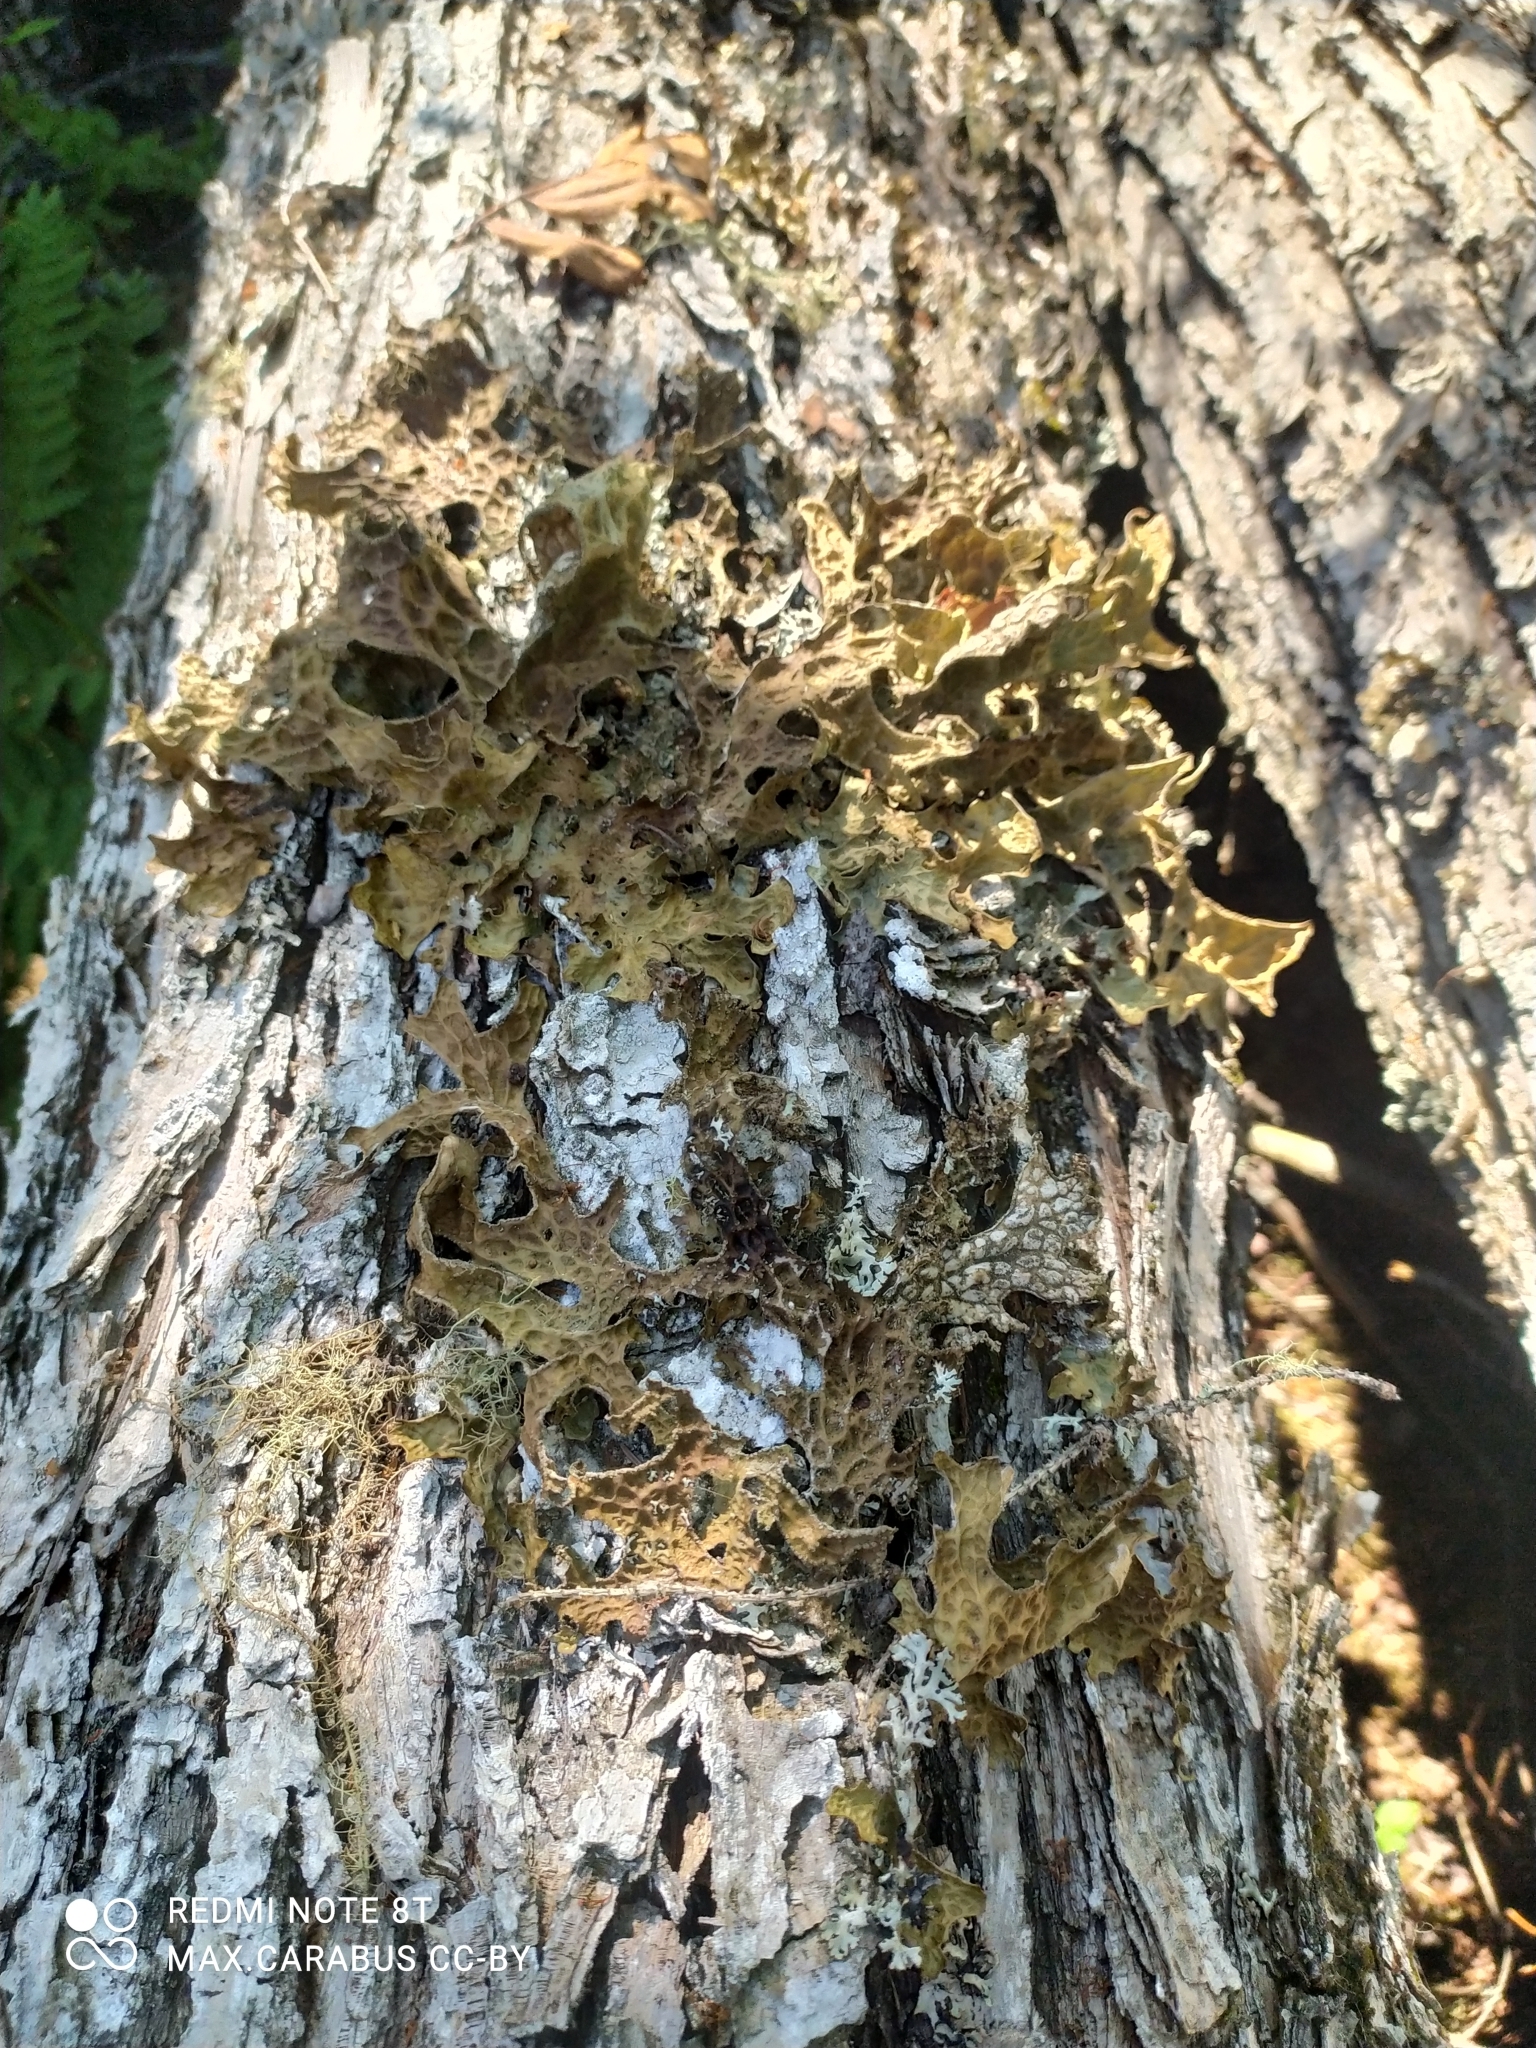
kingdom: Fungi
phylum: Ascomycota
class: Lecanoromycetes
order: Peltigerales
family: Lobariaceae
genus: Lobaria
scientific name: Lobaria pulmonaria
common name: Lungwort
